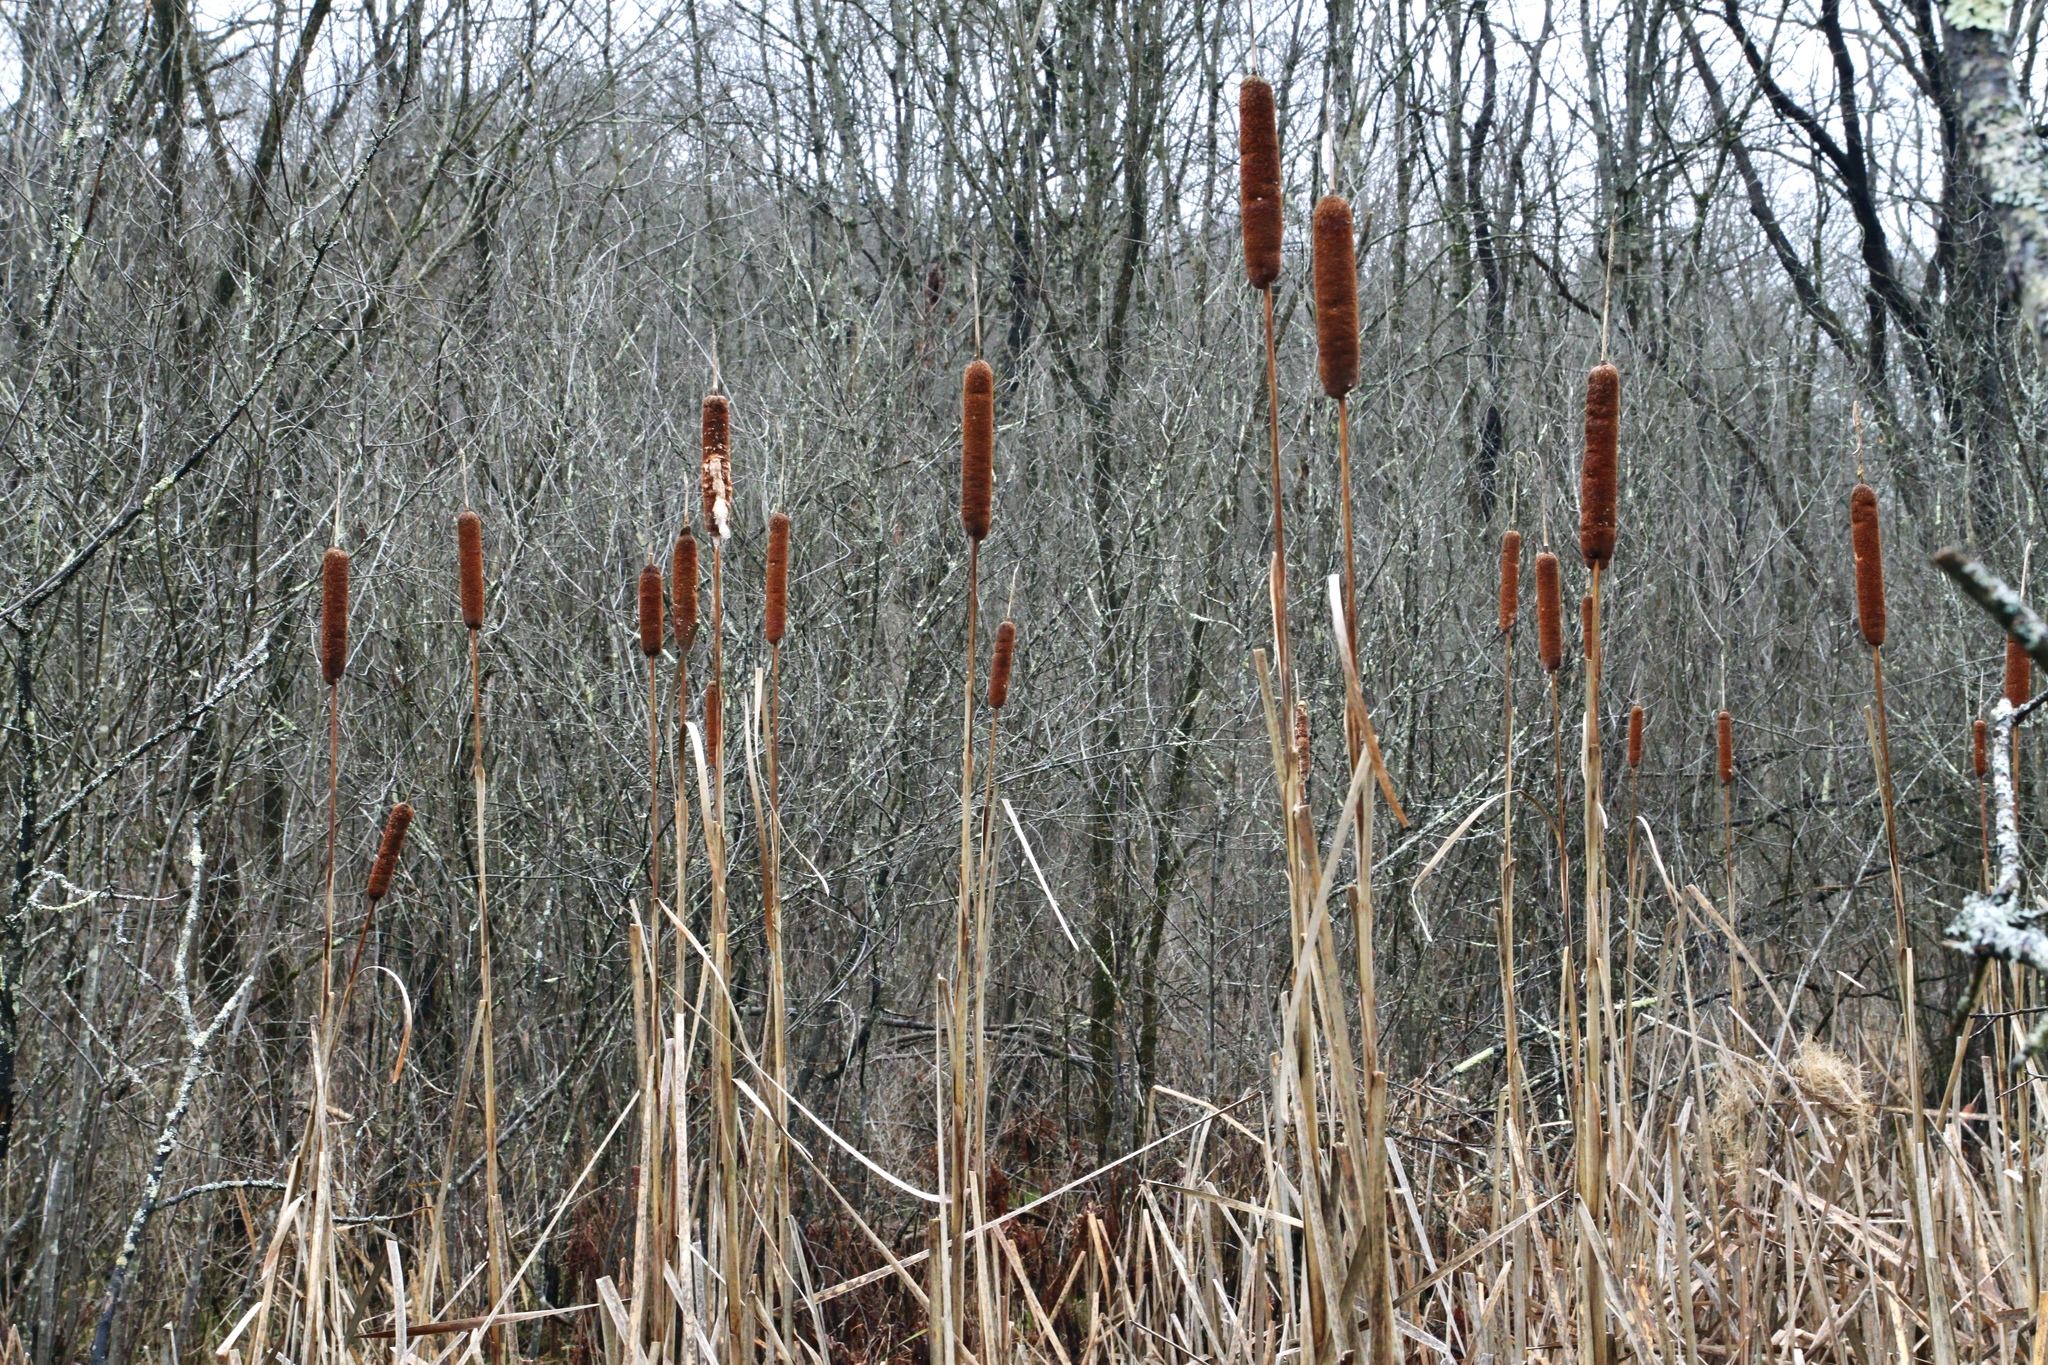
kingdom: Plantae
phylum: Tracheophyta
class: Liliopsida
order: Poales
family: Typhaceae
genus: Typha
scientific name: Typha
